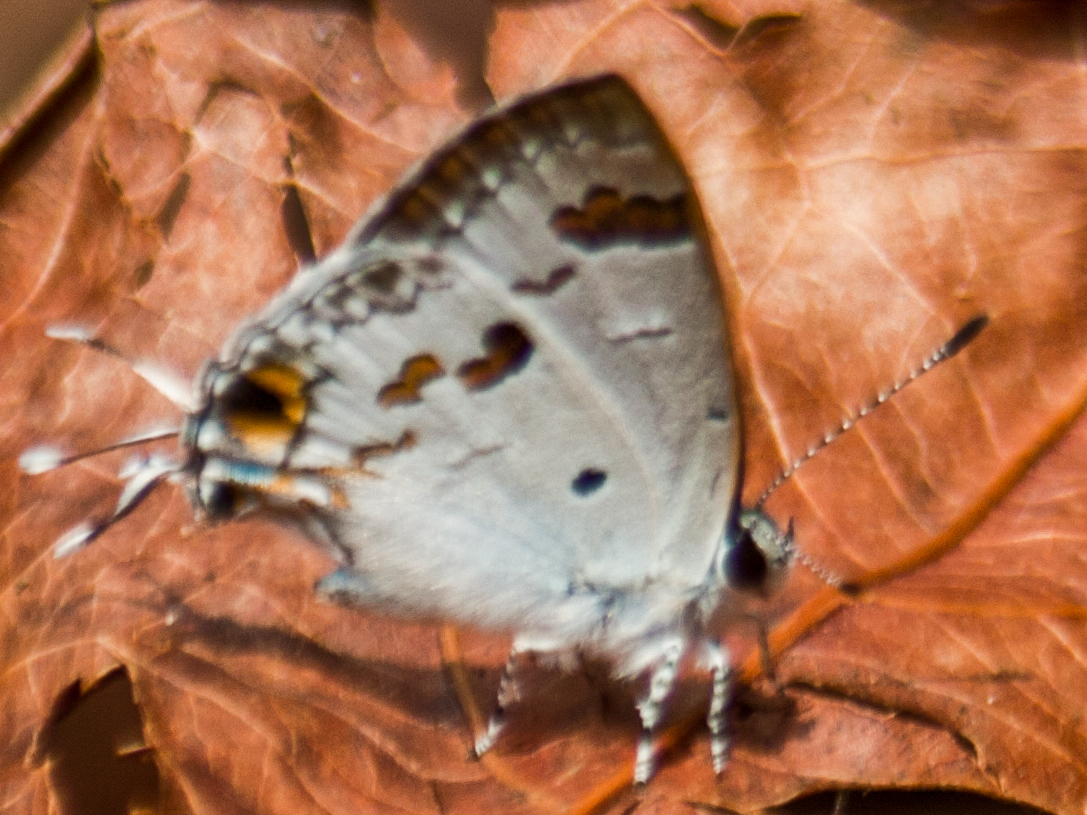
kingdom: Animalia
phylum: Arthropoda
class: Insecta
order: Lepidoptera
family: Lycaenidae
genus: Chliaria
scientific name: Chliaria othona
